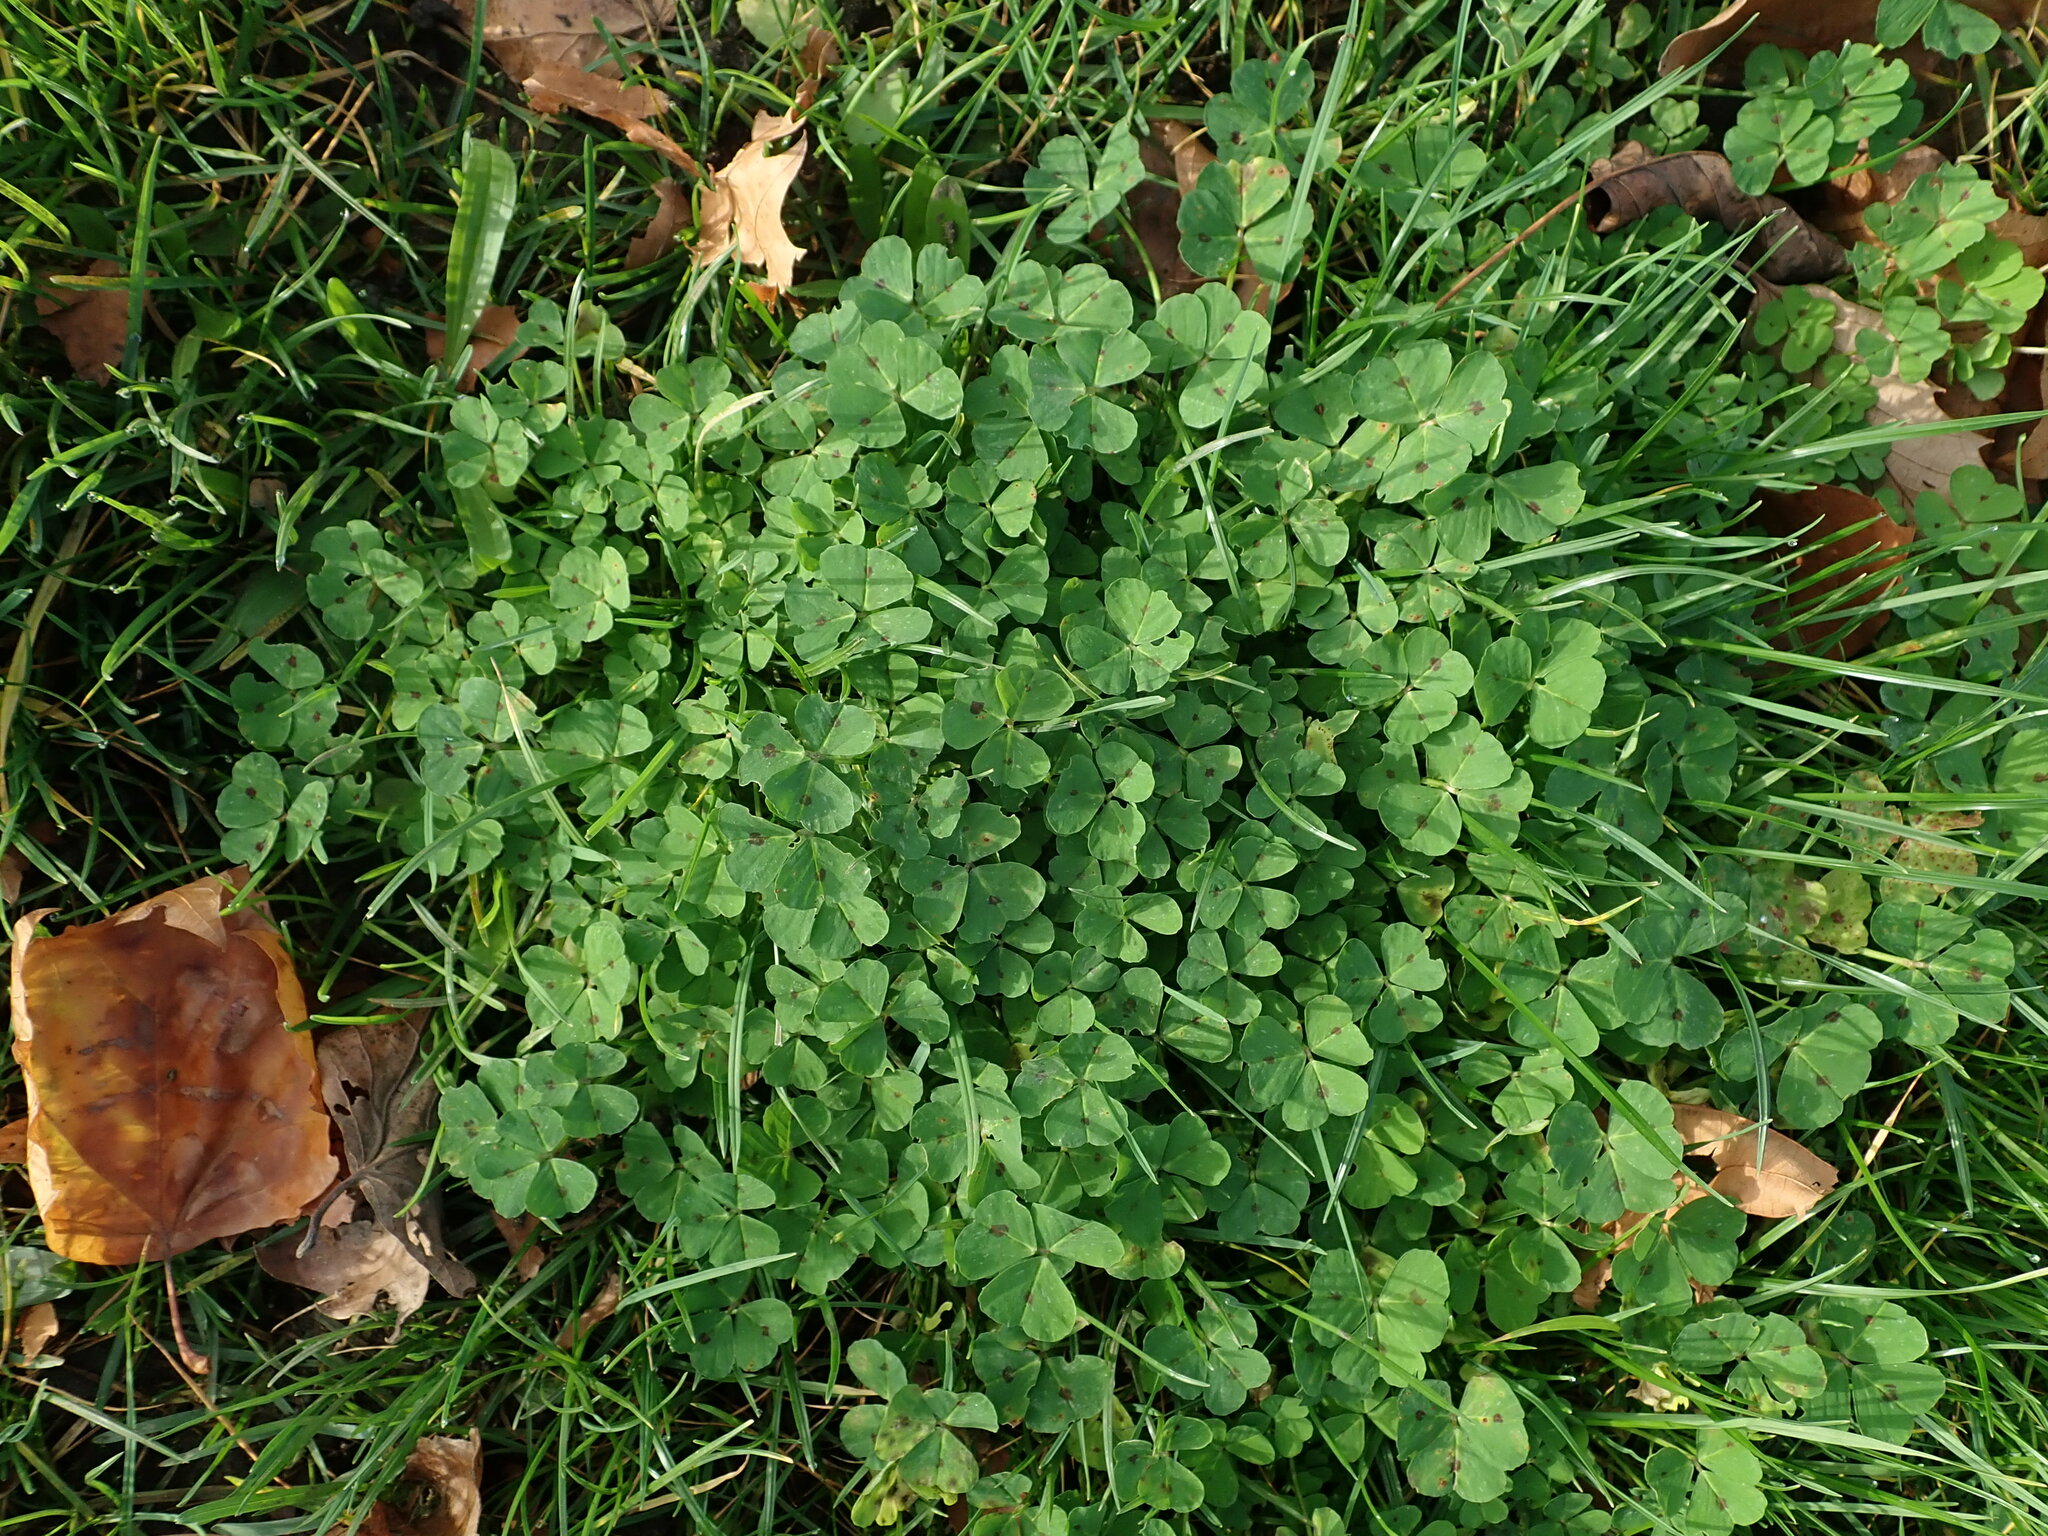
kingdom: Plantae
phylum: Tracheophyta
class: Magnoliopsida
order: Fabales
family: Fabaceae
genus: Medicago
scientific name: Medicago arabica
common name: Spotted medick
